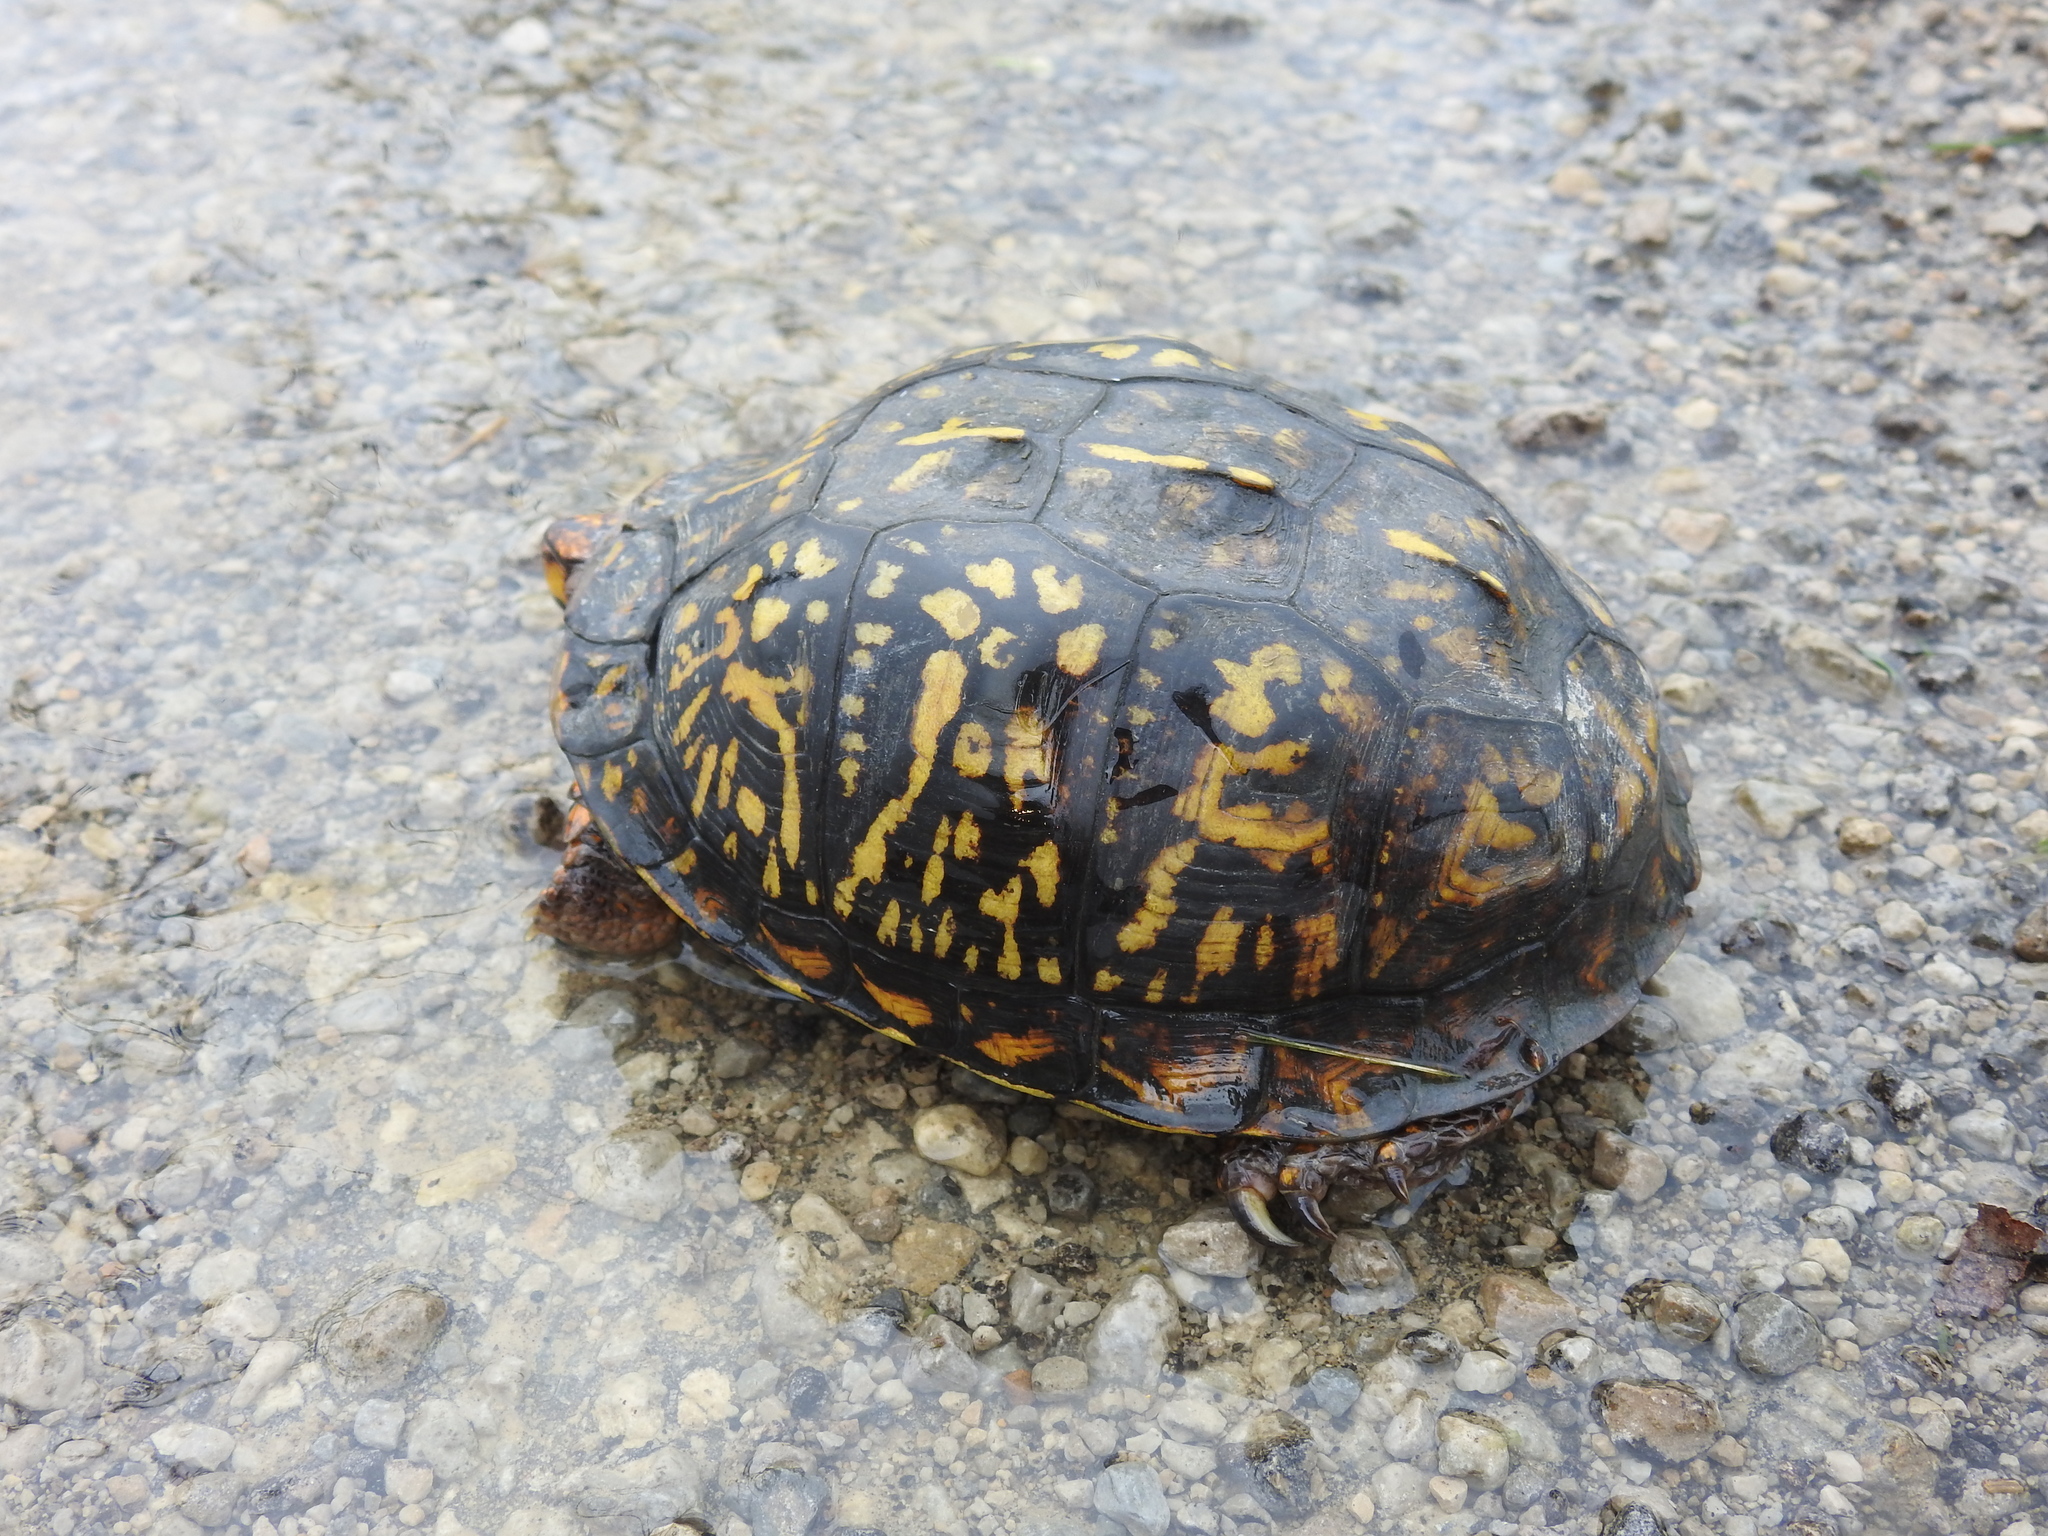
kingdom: Animalia
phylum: Chordata
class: Testudines
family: Emydidae
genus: Terrapene
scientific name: Terrapene carolina
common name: Common box turtle
